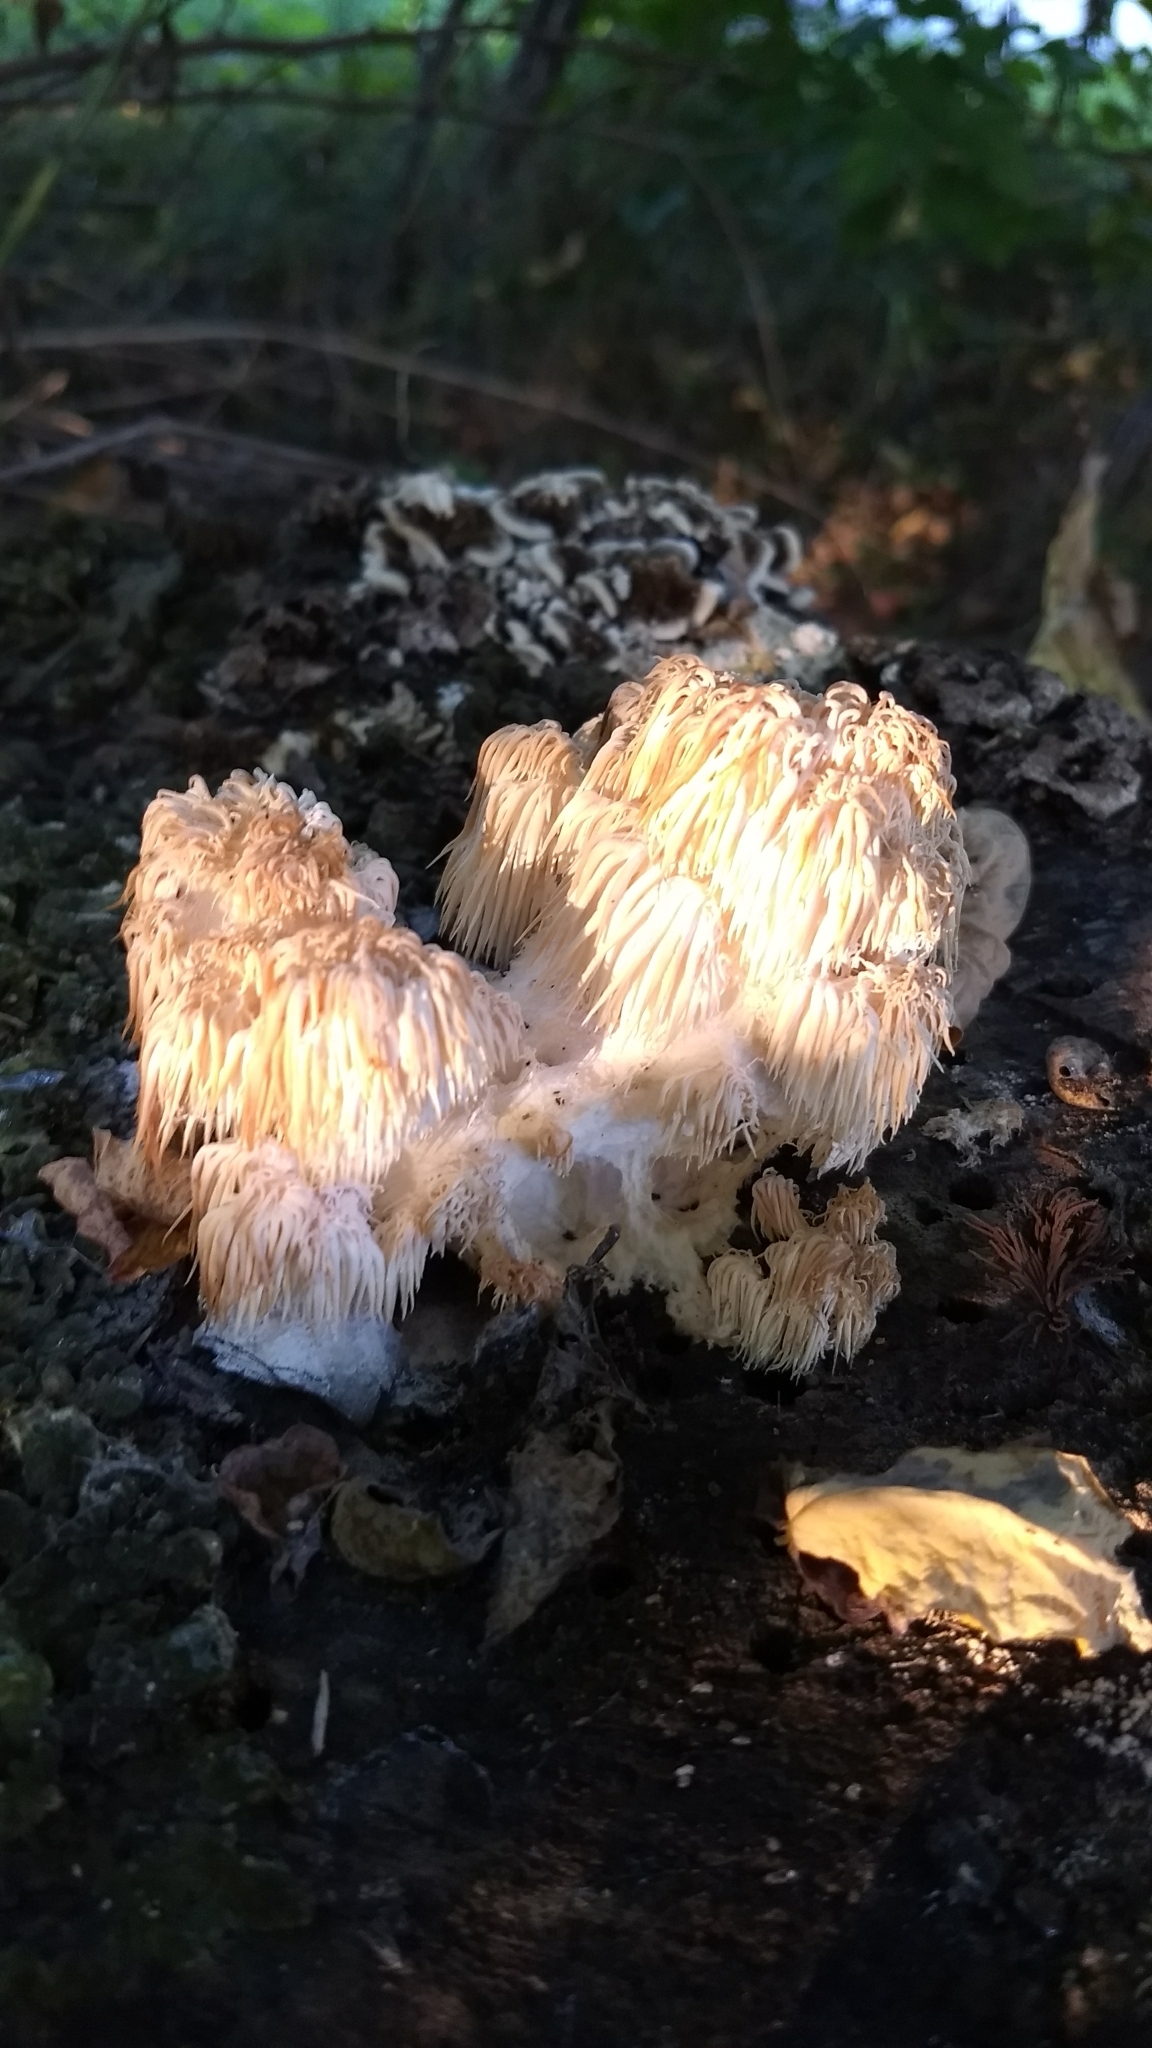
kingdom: Fungi
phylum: Basidiomycota
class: Agaricomycetes
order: Russulales
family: Hericiaceae
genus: Hericium
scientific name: Hericium americanum
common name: Bear's head tooth
